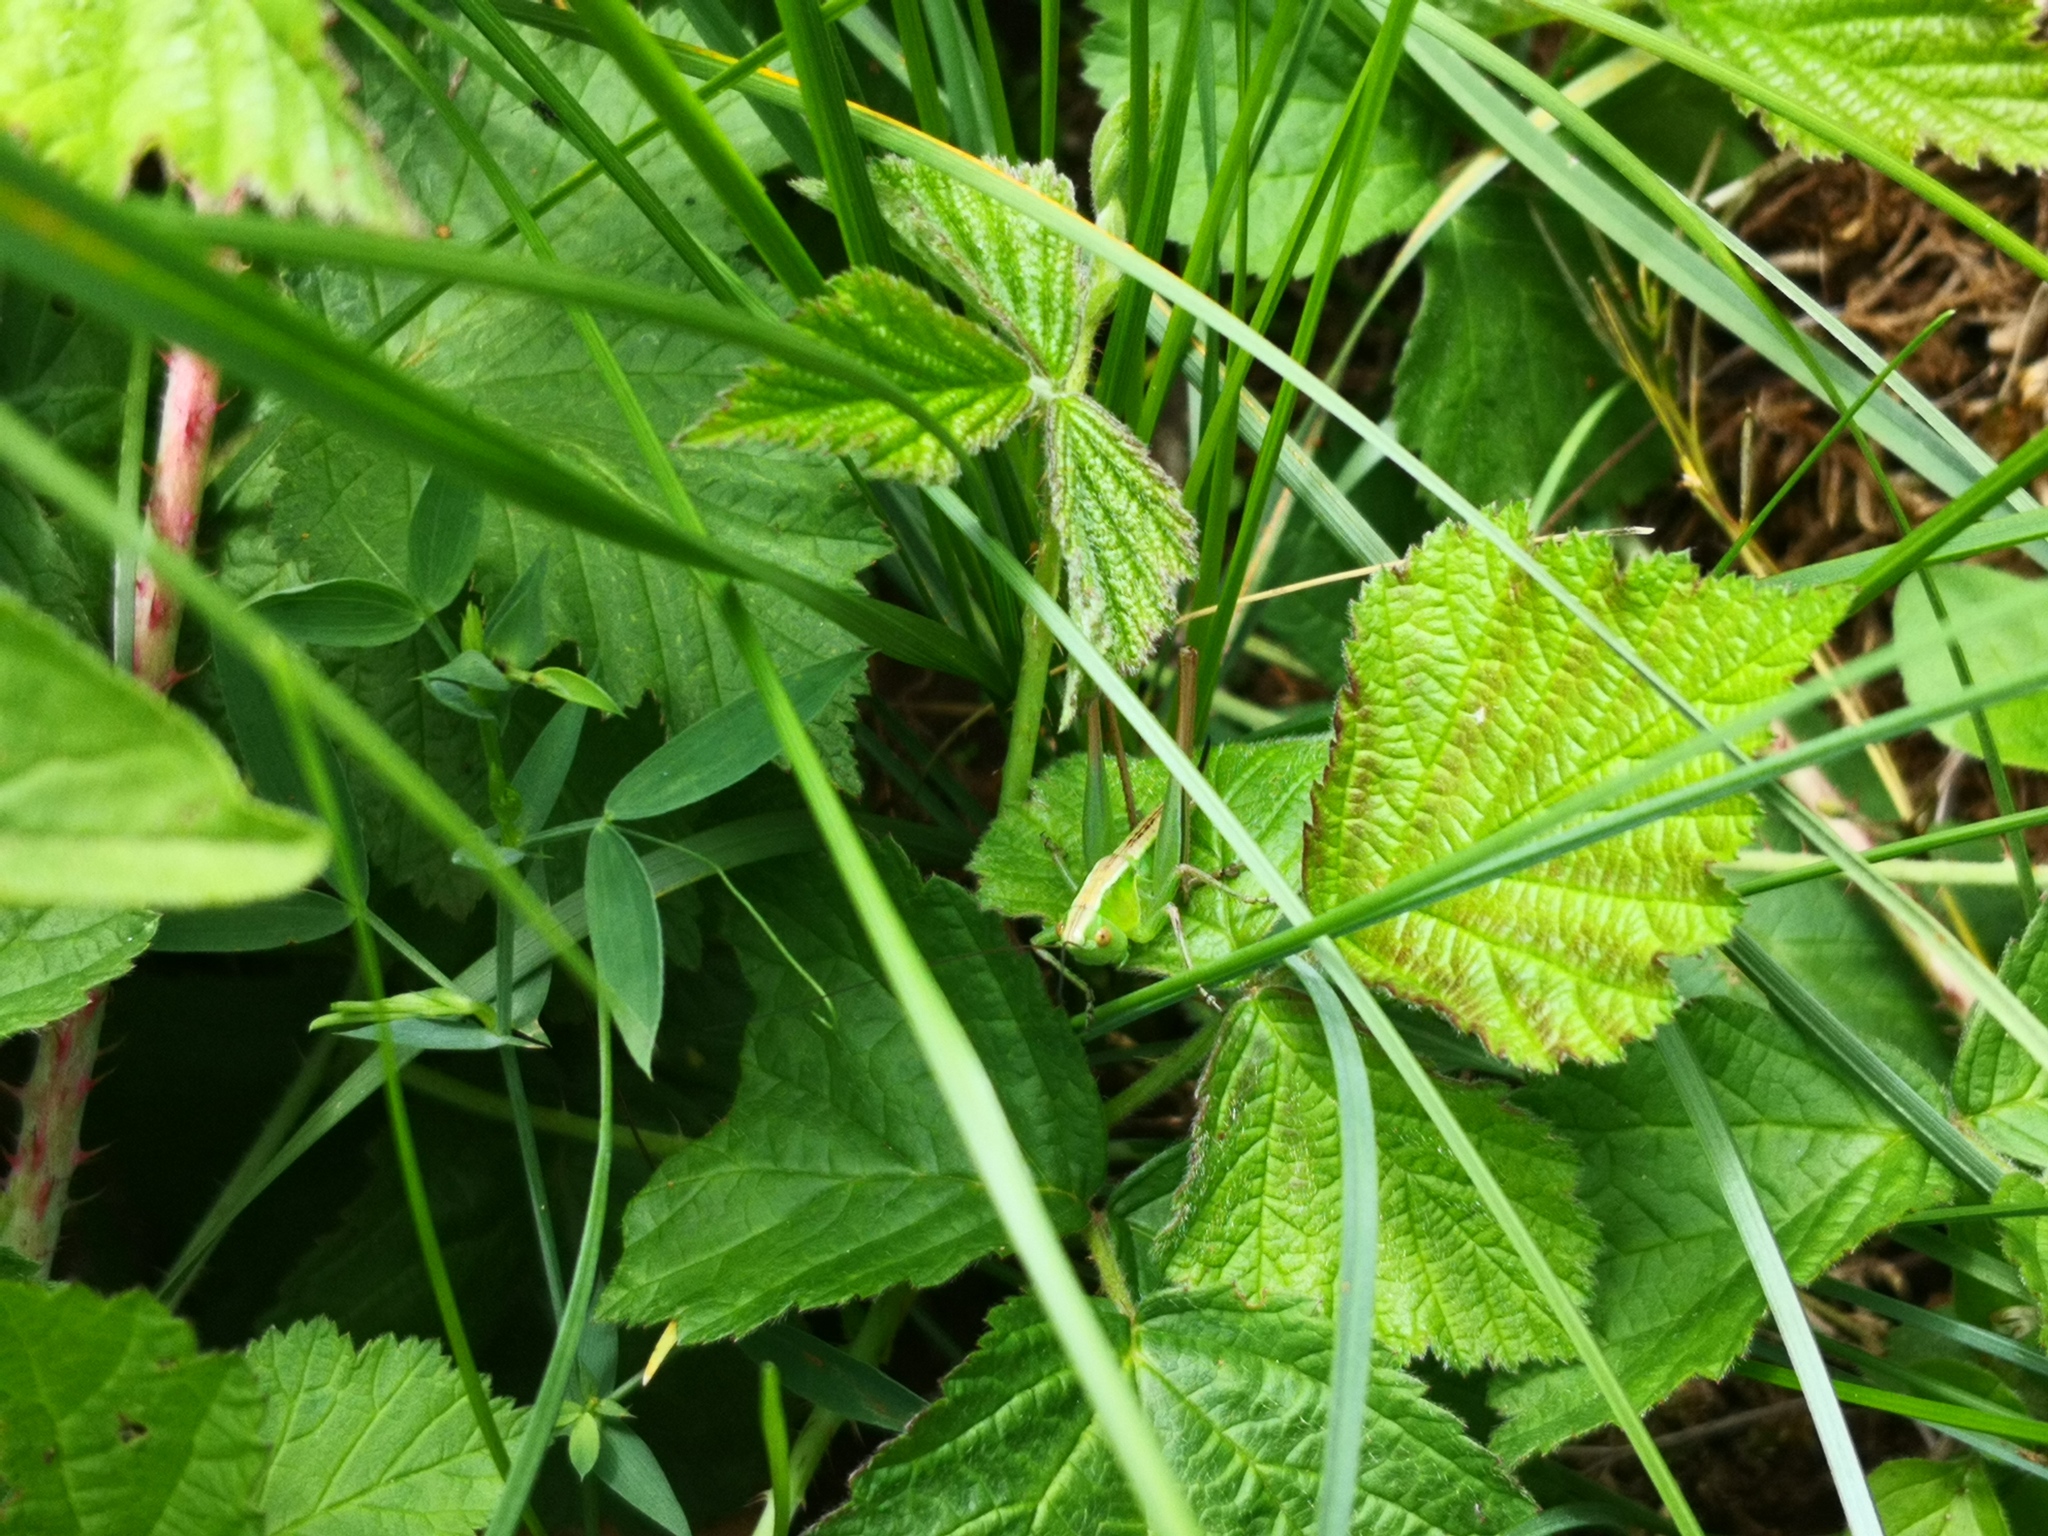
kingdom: Animalia
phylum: Arthropoda
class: Insecta
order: Orthoptera
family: Tettigoniidae
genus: Bicolorana
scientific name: Bicolorana bicolor
